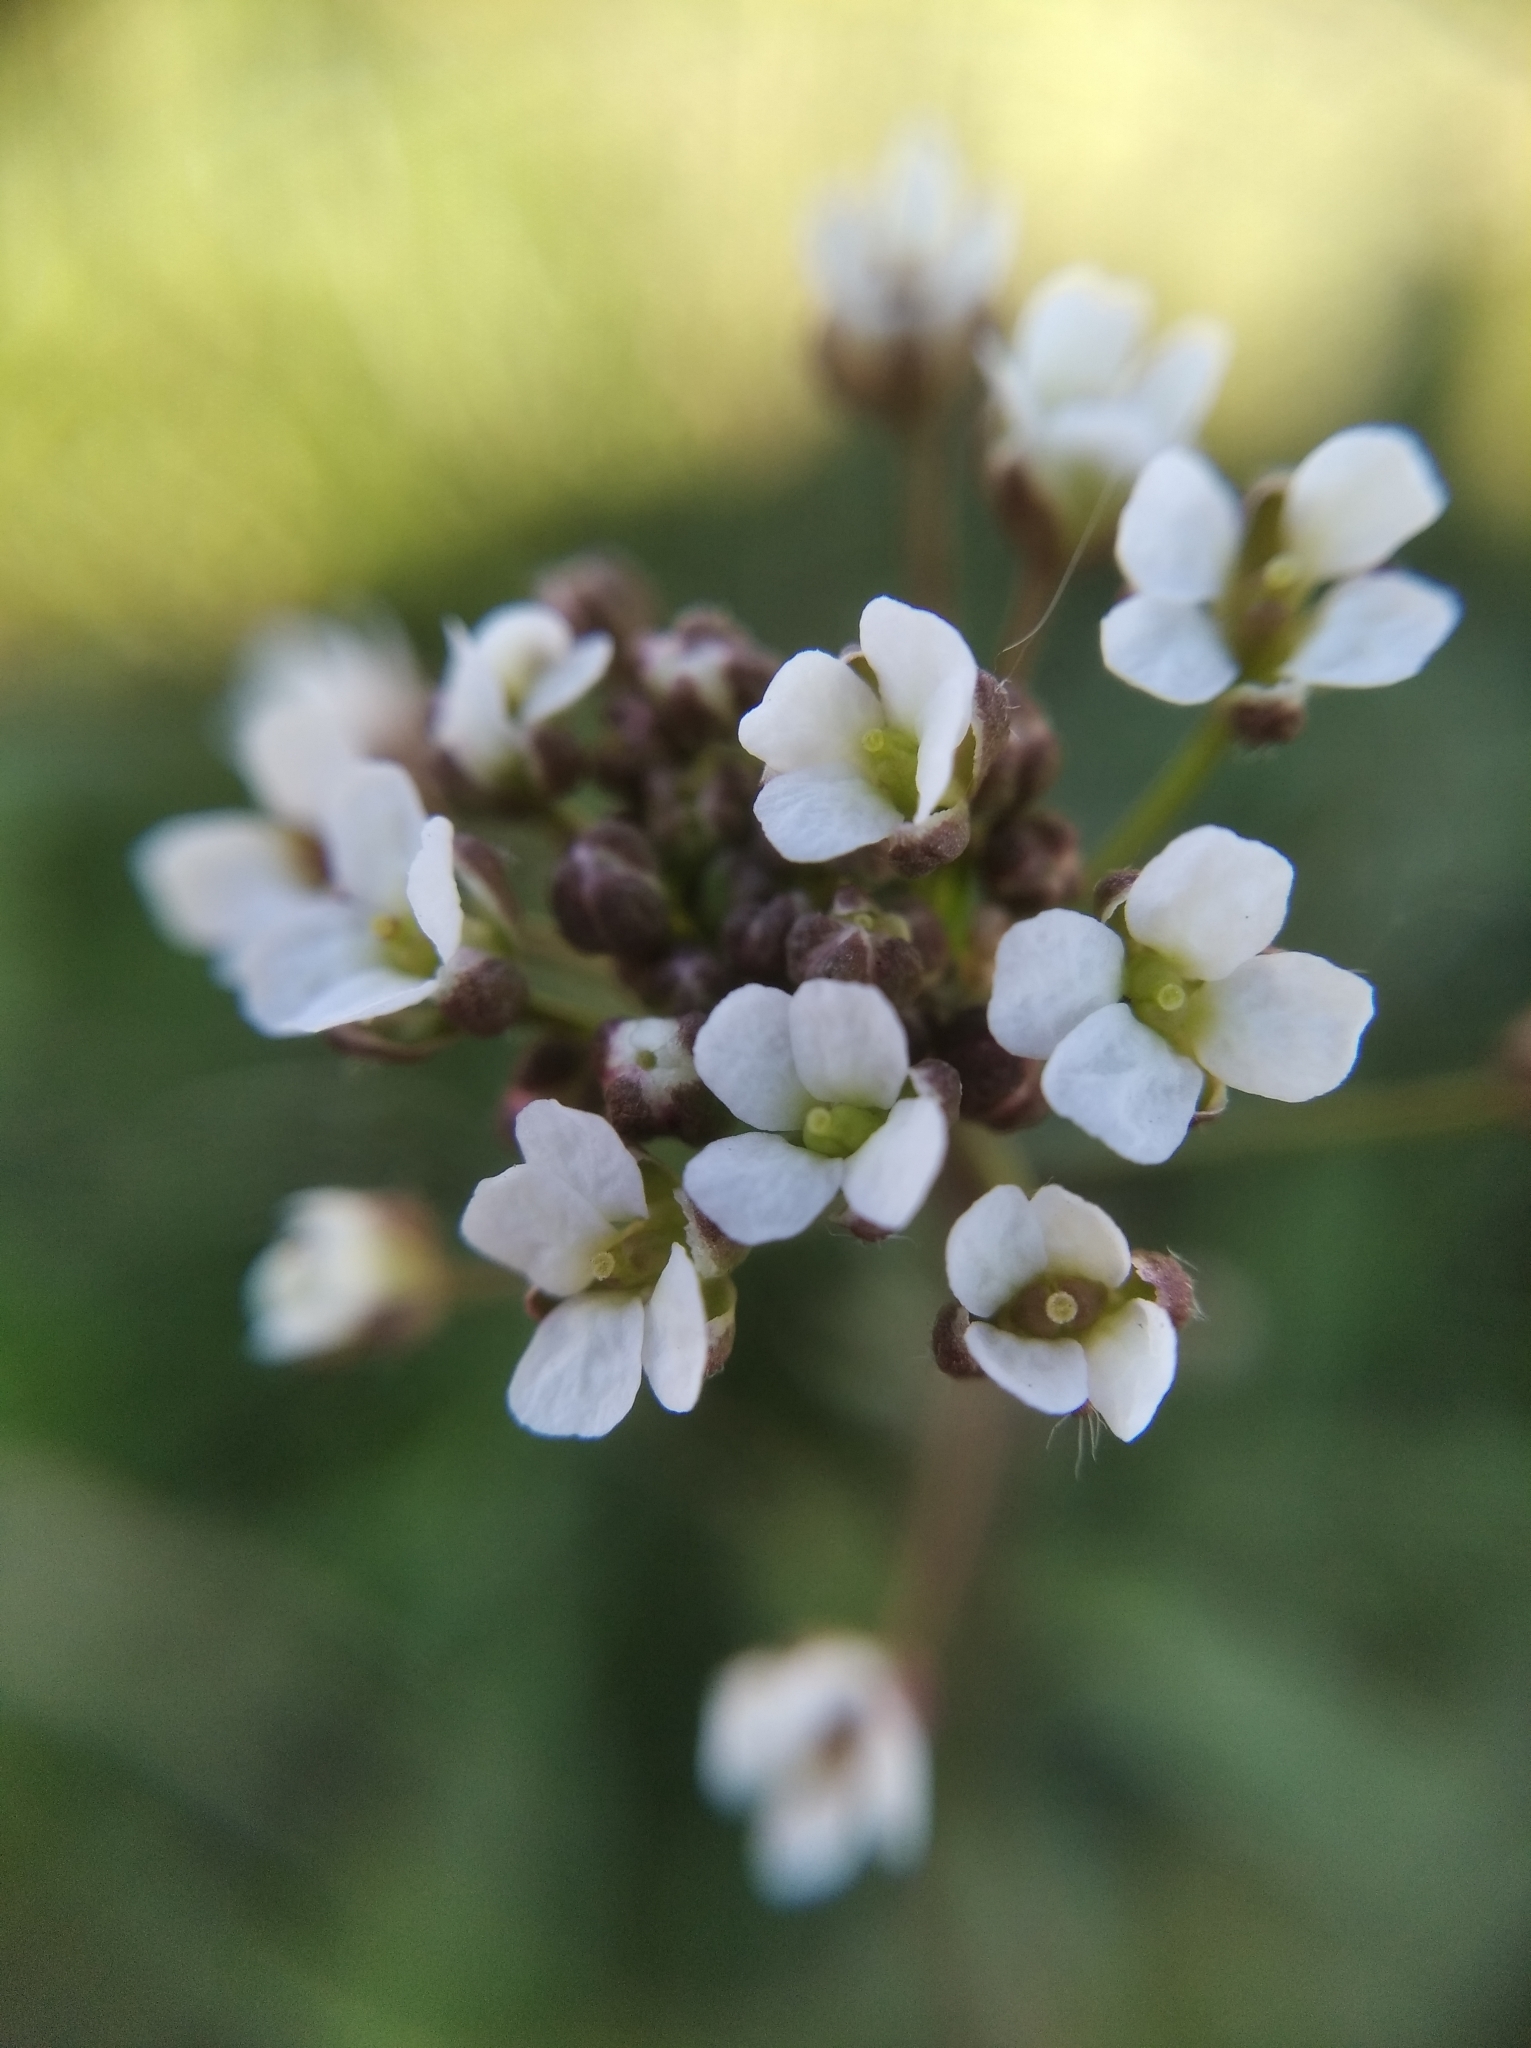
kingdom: Plantae
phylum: Tracheophyta
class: Magnoliopsida
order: Brassicales
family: Brassicaceae
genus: Capsella
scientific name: Capsella bursa-pastoris
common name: Shepherd's purse
